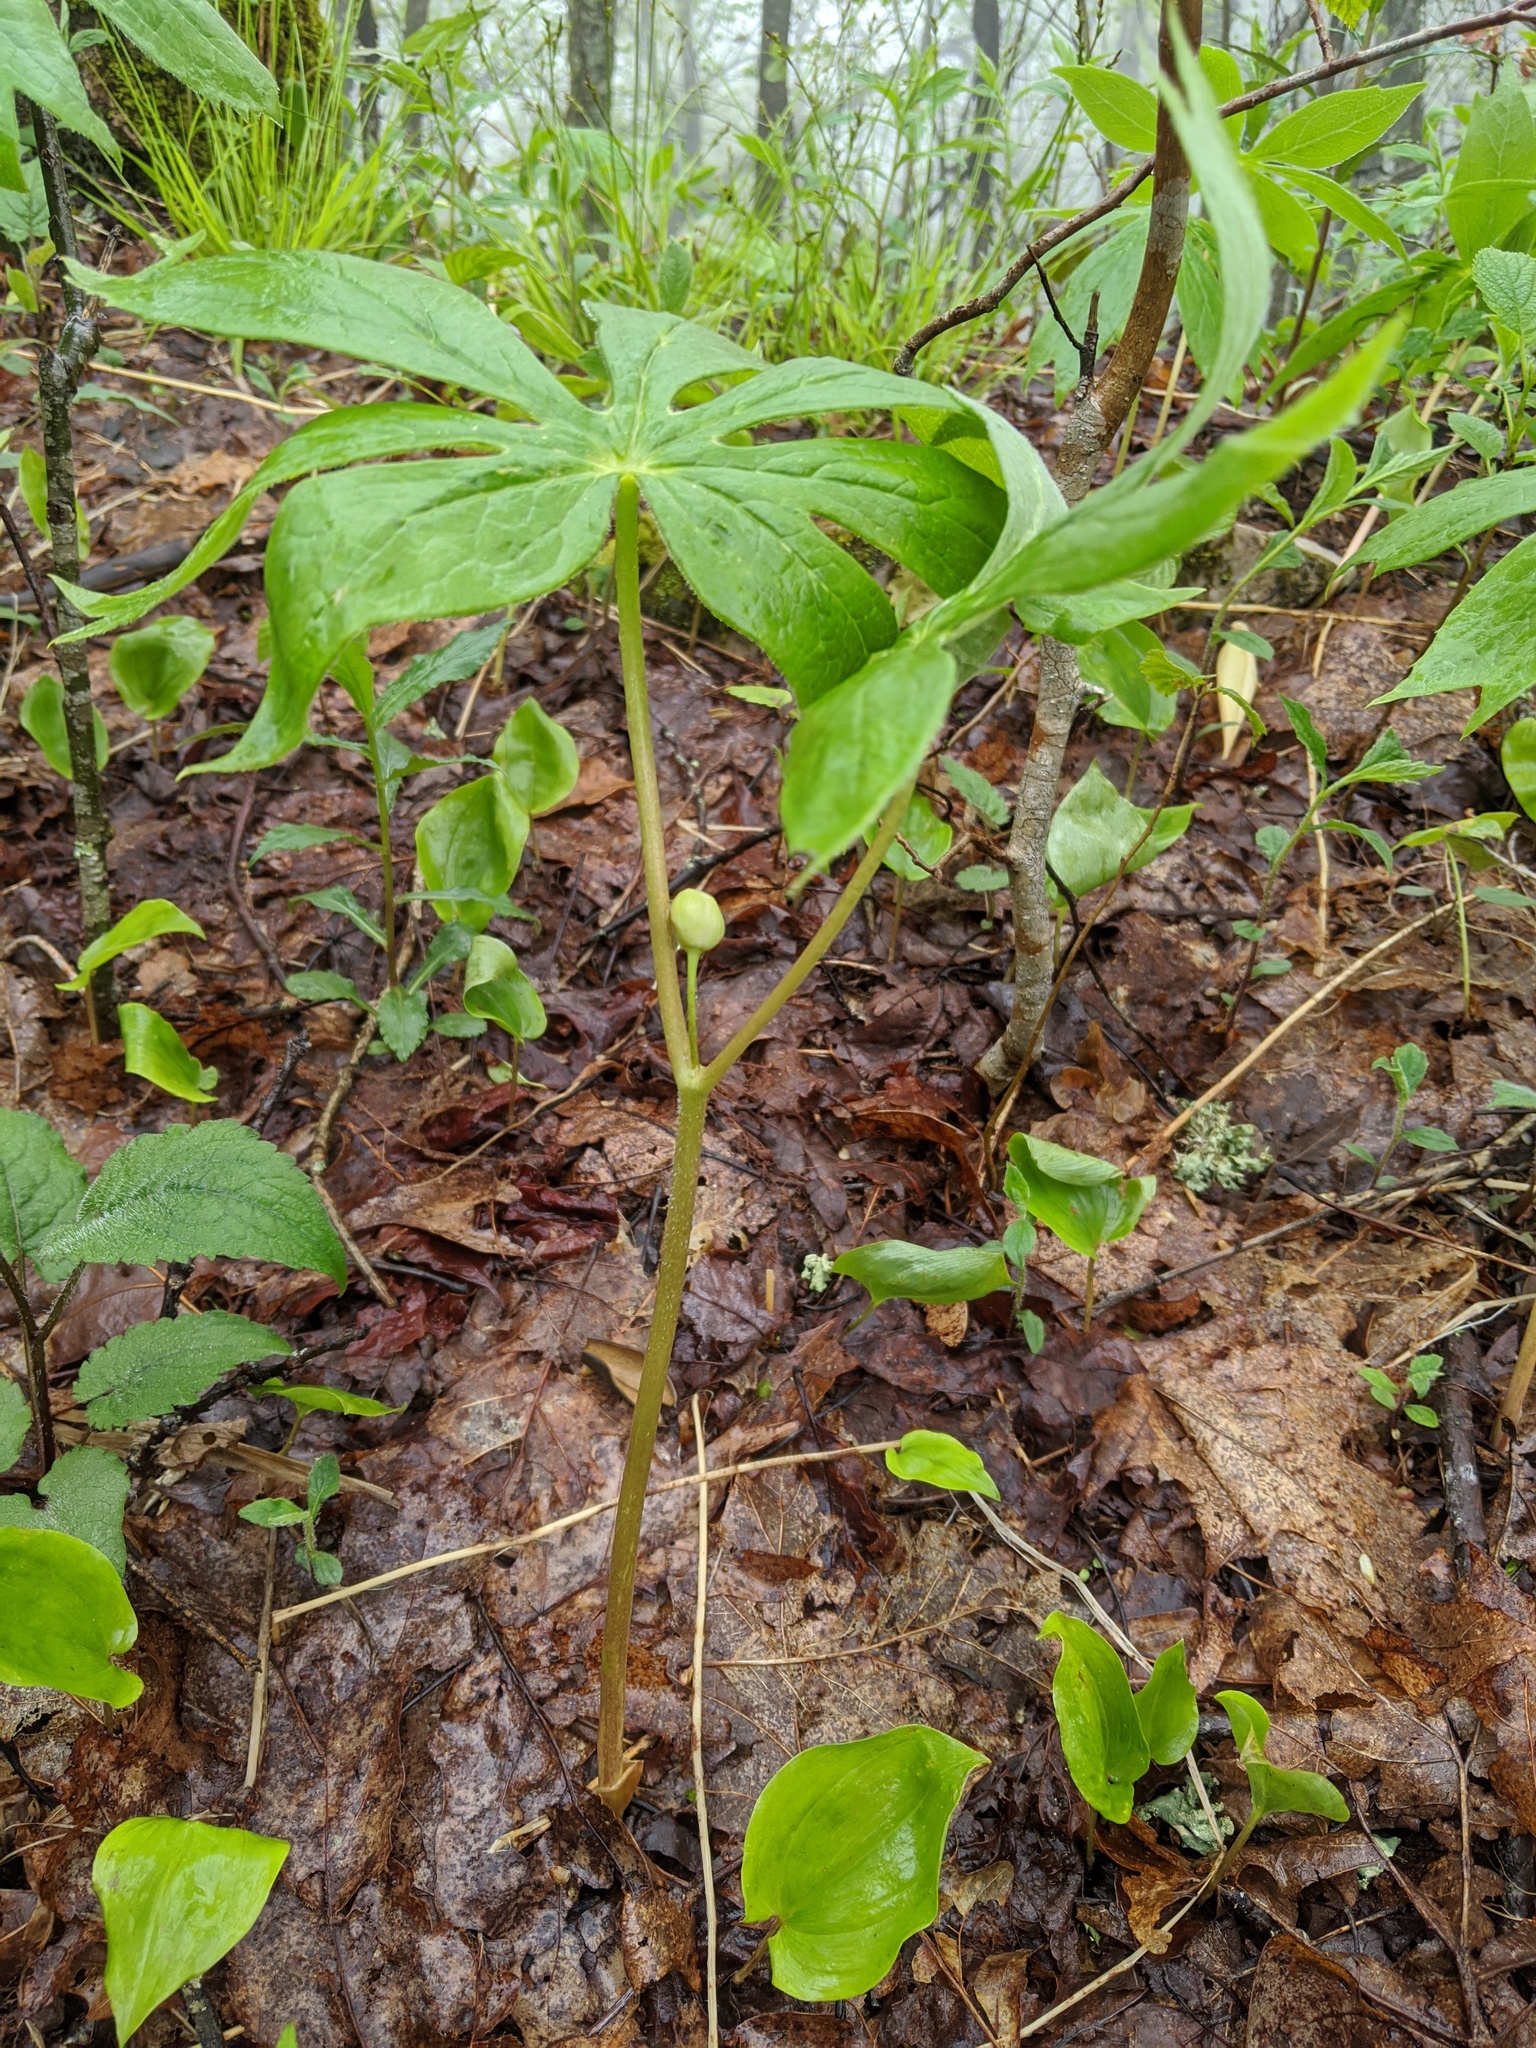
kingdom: Plantae
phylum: Tracheophyta
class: Magnoliopsida
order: Ranunculales
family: Berberidaceae
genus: Podophyllum
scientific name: Podophyllum peltatum
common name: Wild mandrake
